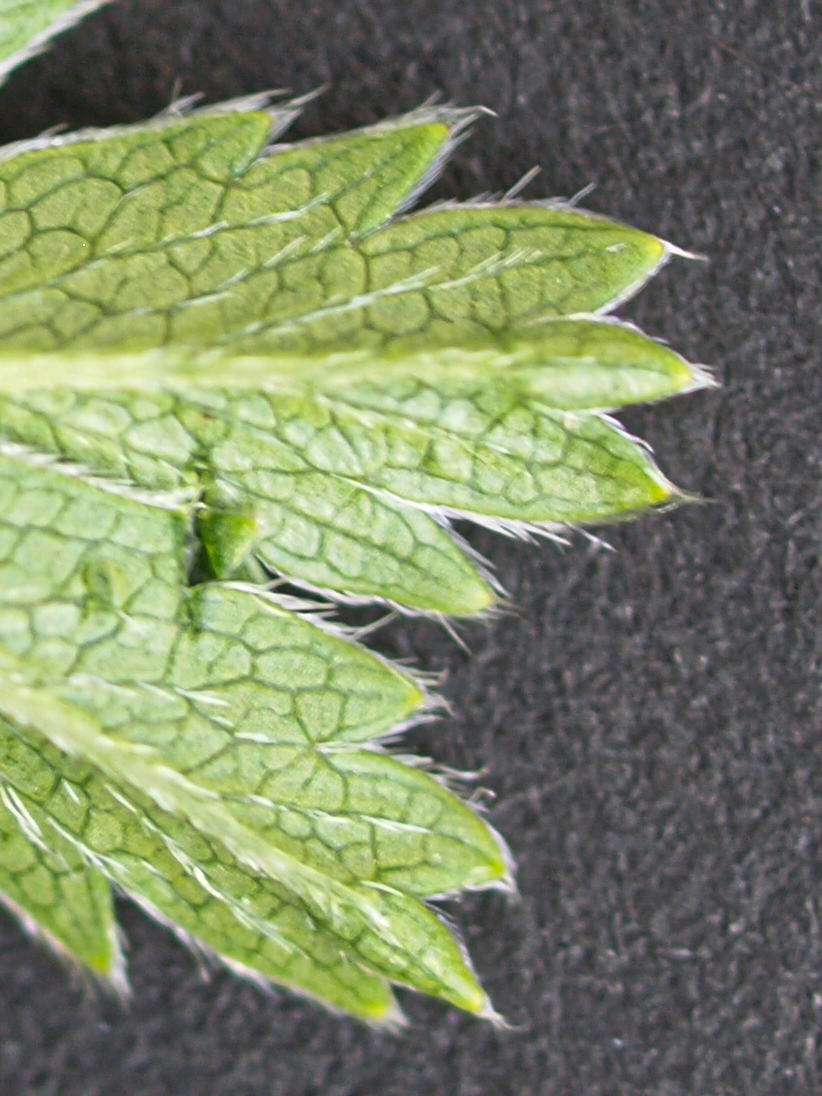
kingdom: Plantae
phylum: Tracheophyta
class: Magnoliopsida
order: Rosales
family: Rosaceae
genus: Potentilla
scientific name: Potentilla aurea
